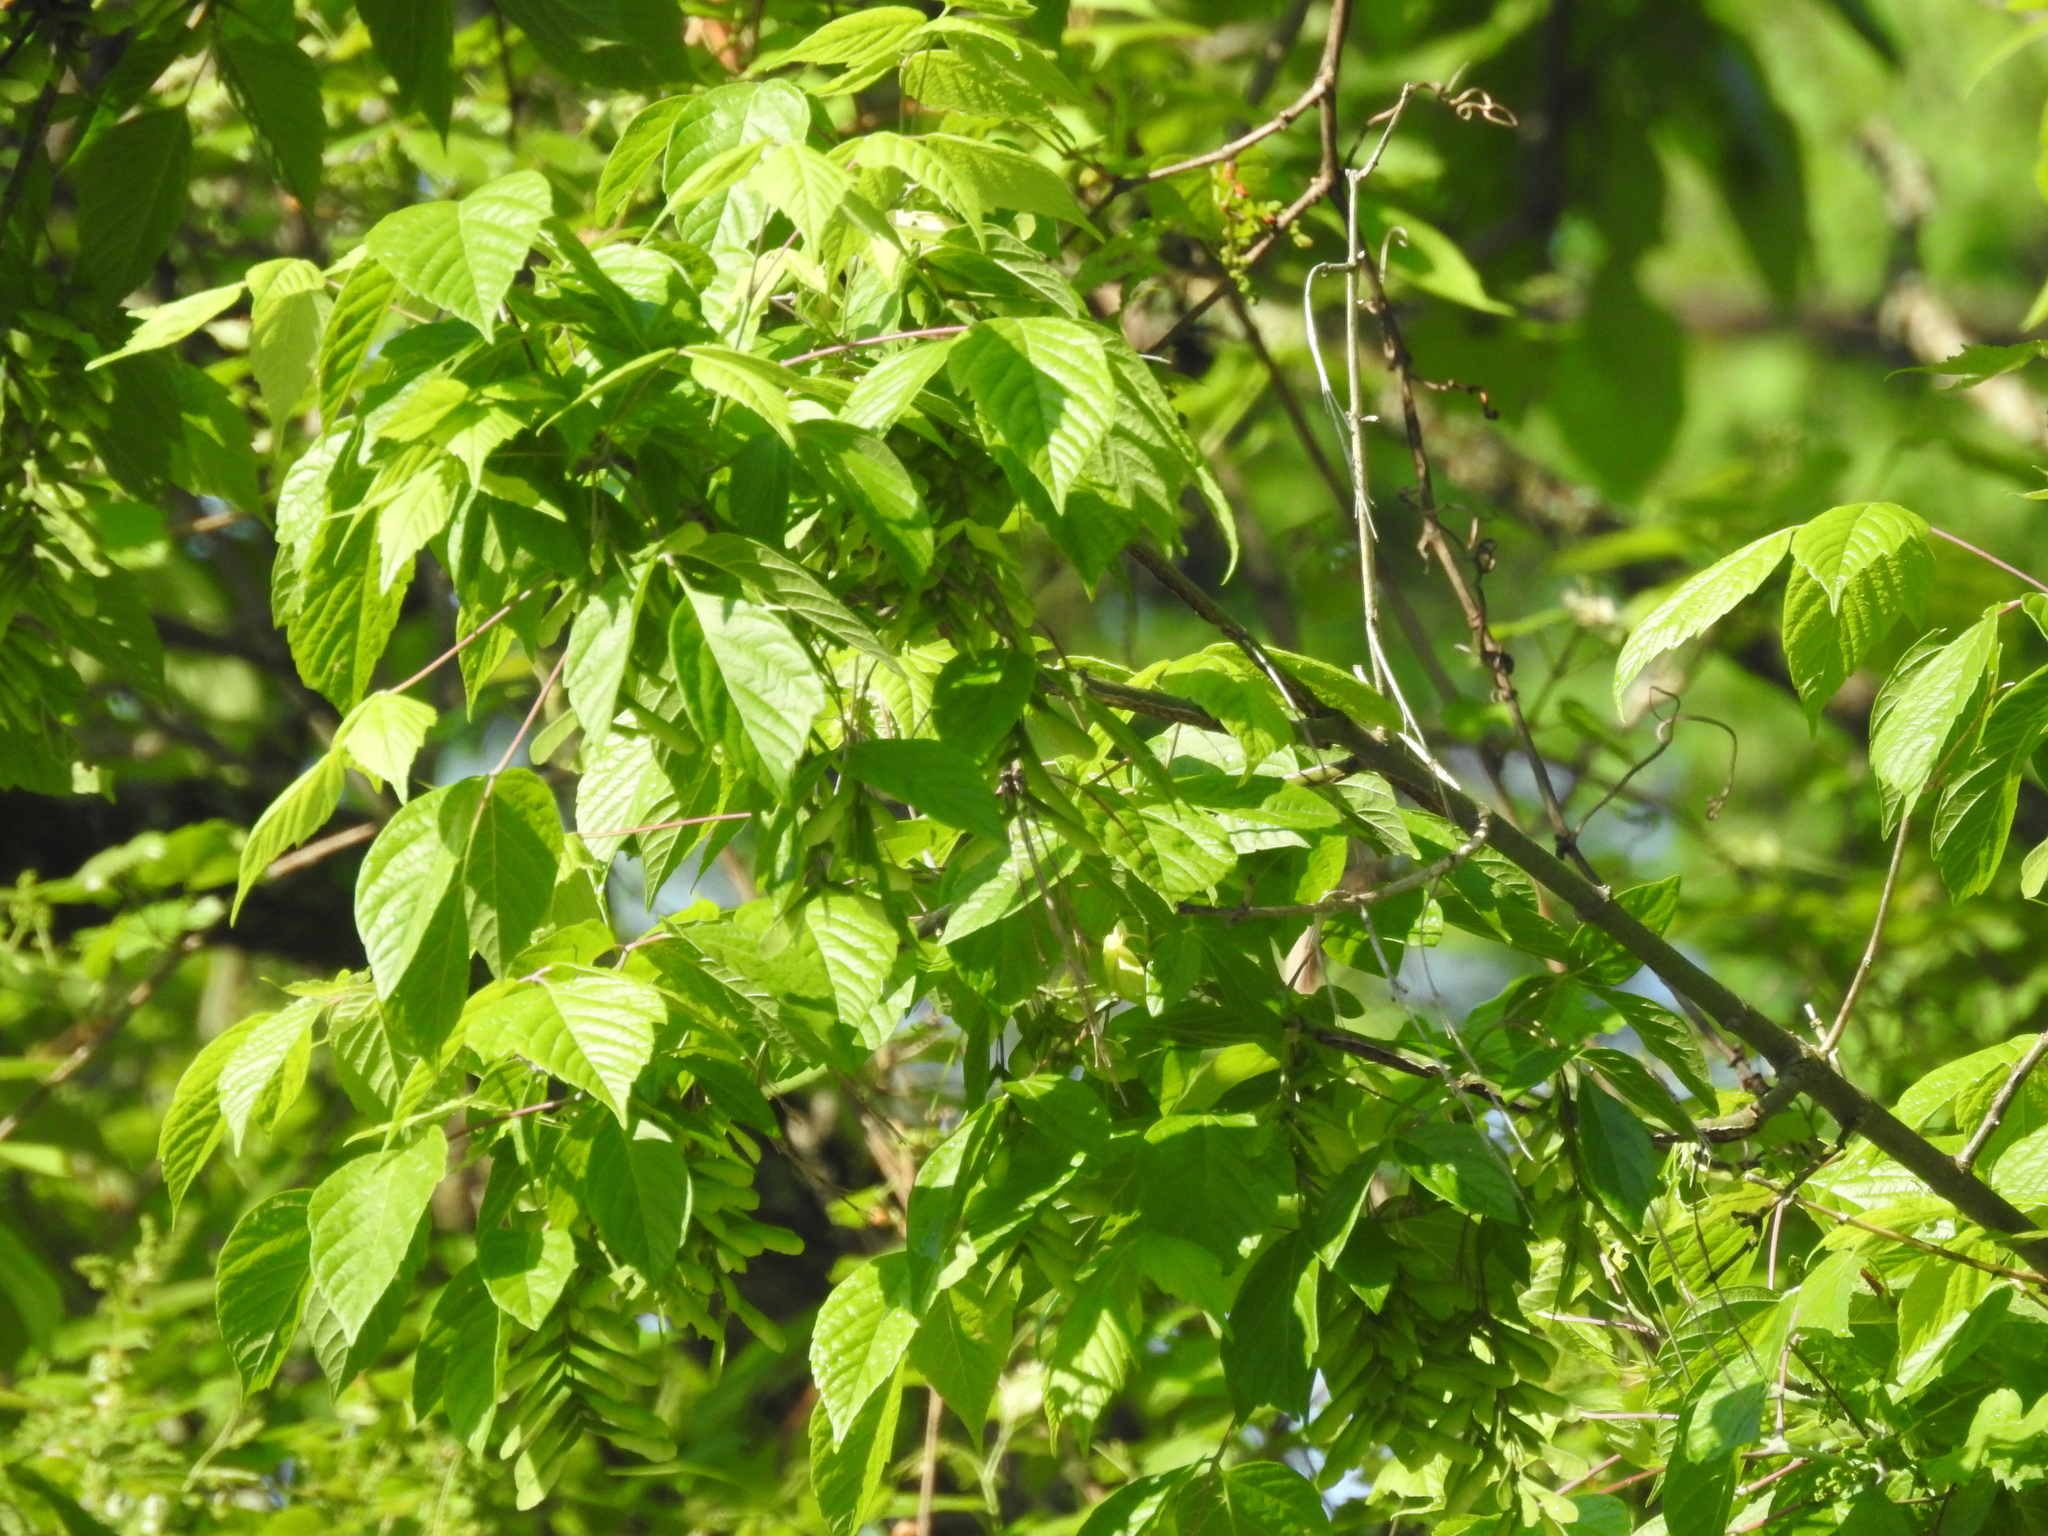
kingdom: Plantae
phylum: Tracheophyta
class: Magnoliopsida
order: Sapindales
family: Sapindaceae
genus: Acer
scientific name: Acer negundo
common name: Ashleaf maple
